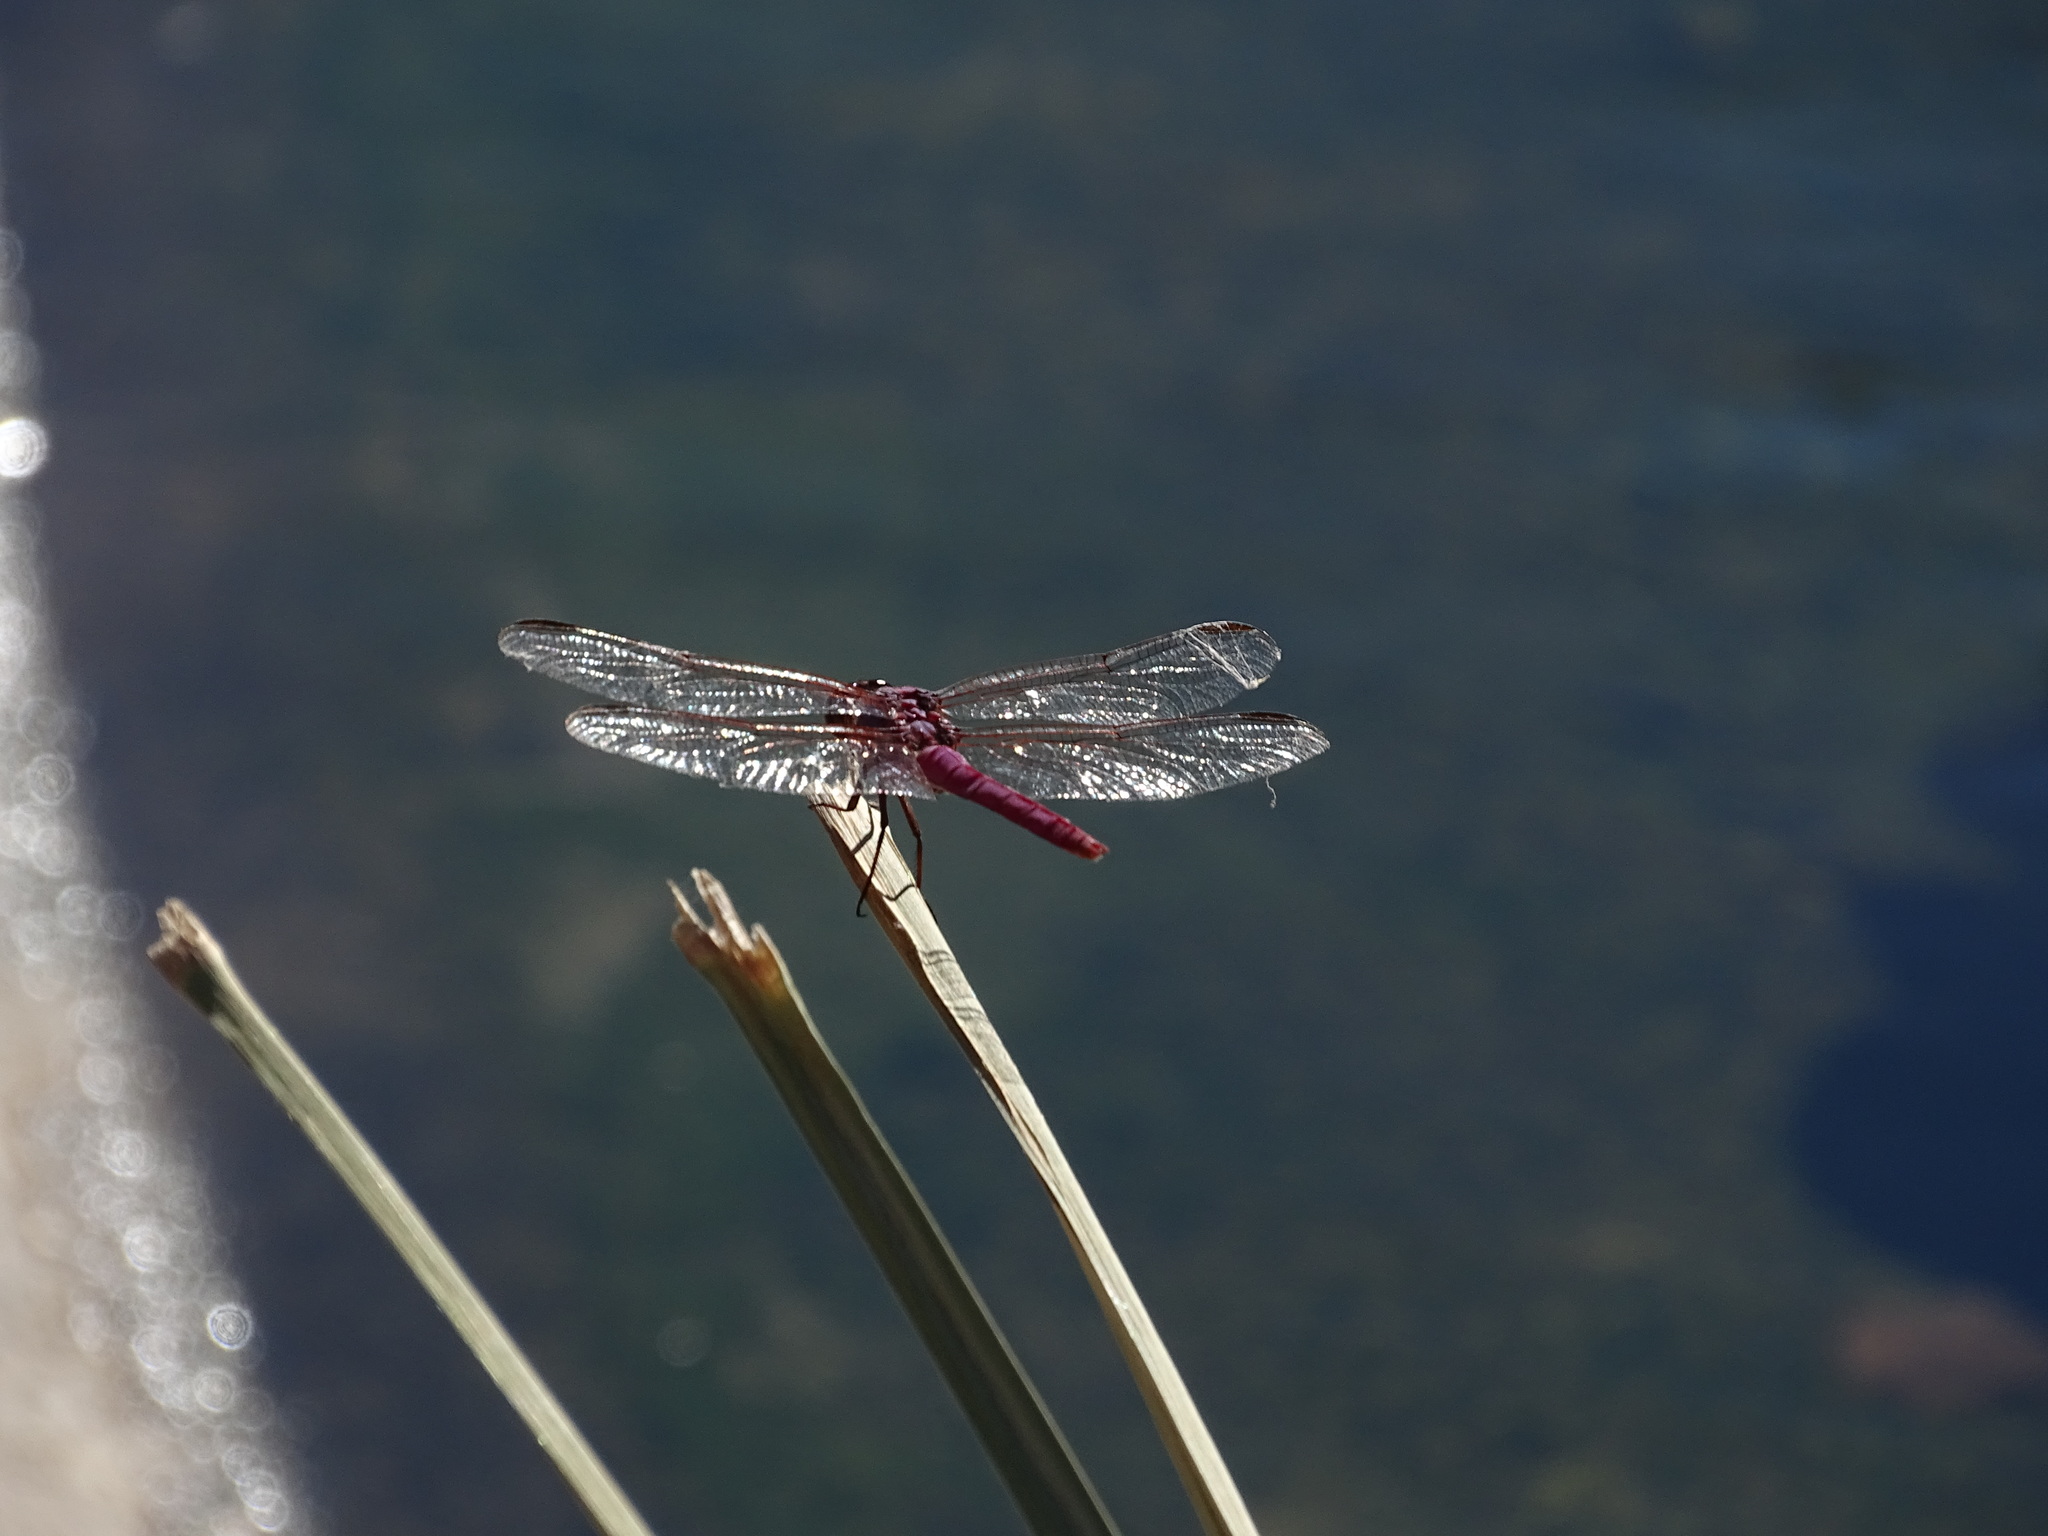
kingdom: Animalia
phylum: Arthropoda
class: Insecta
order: Odonata
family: Libellulidae
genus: Orthemis
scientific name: Orthemis ferruginea
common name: Roseate skimmer
